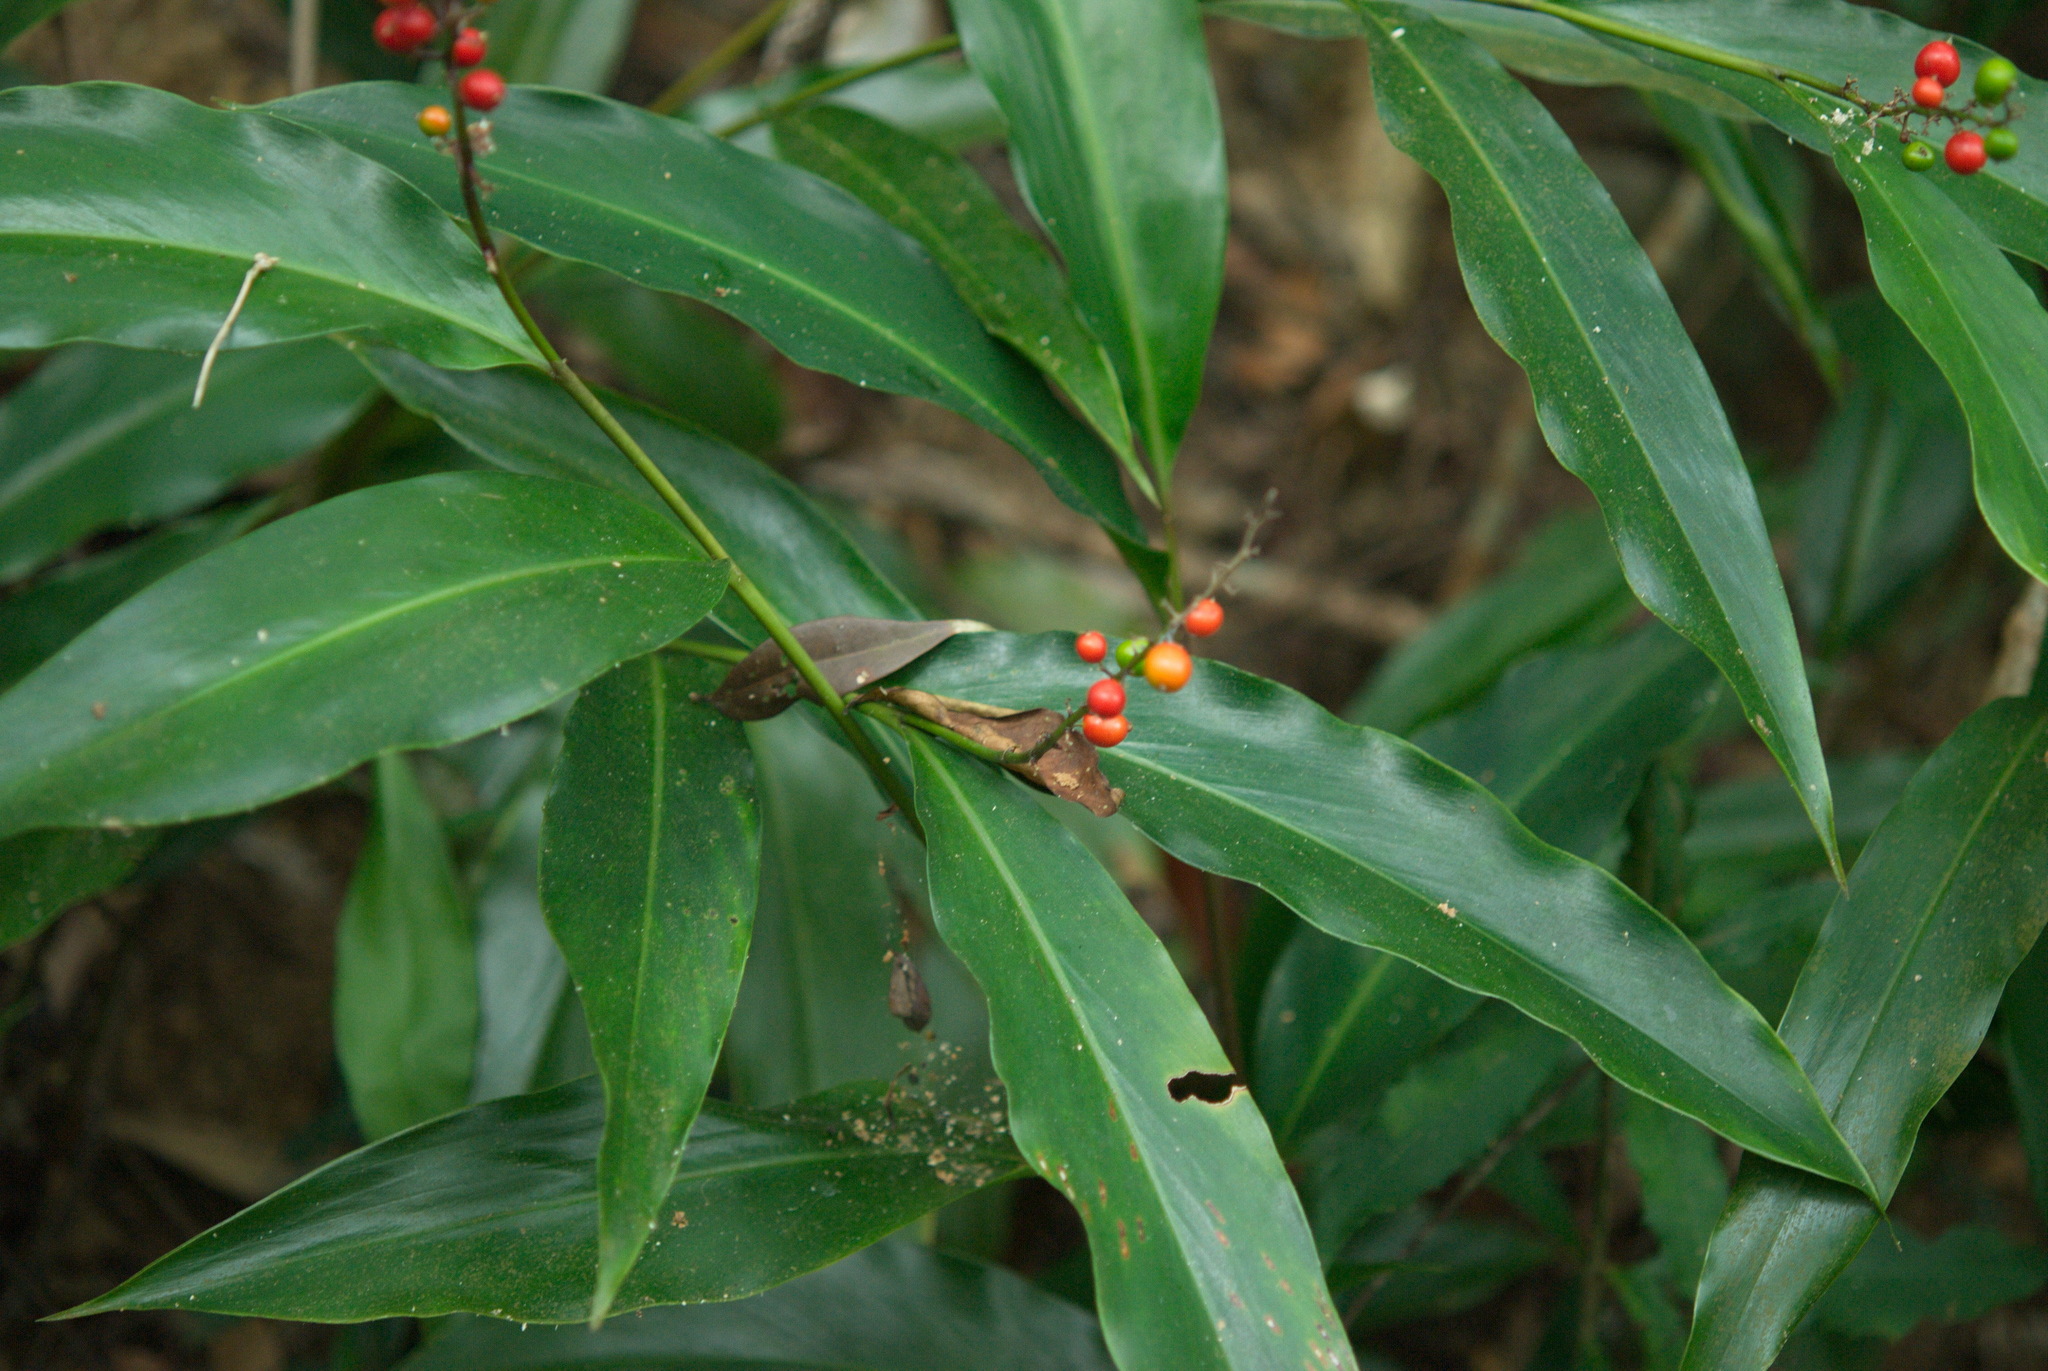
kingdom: Plantae
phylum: Tracheophyta
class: Liliopsida
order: Zingiberales
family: Zingiberaceae
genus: Alpinia
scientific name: Alpinia intermedia
